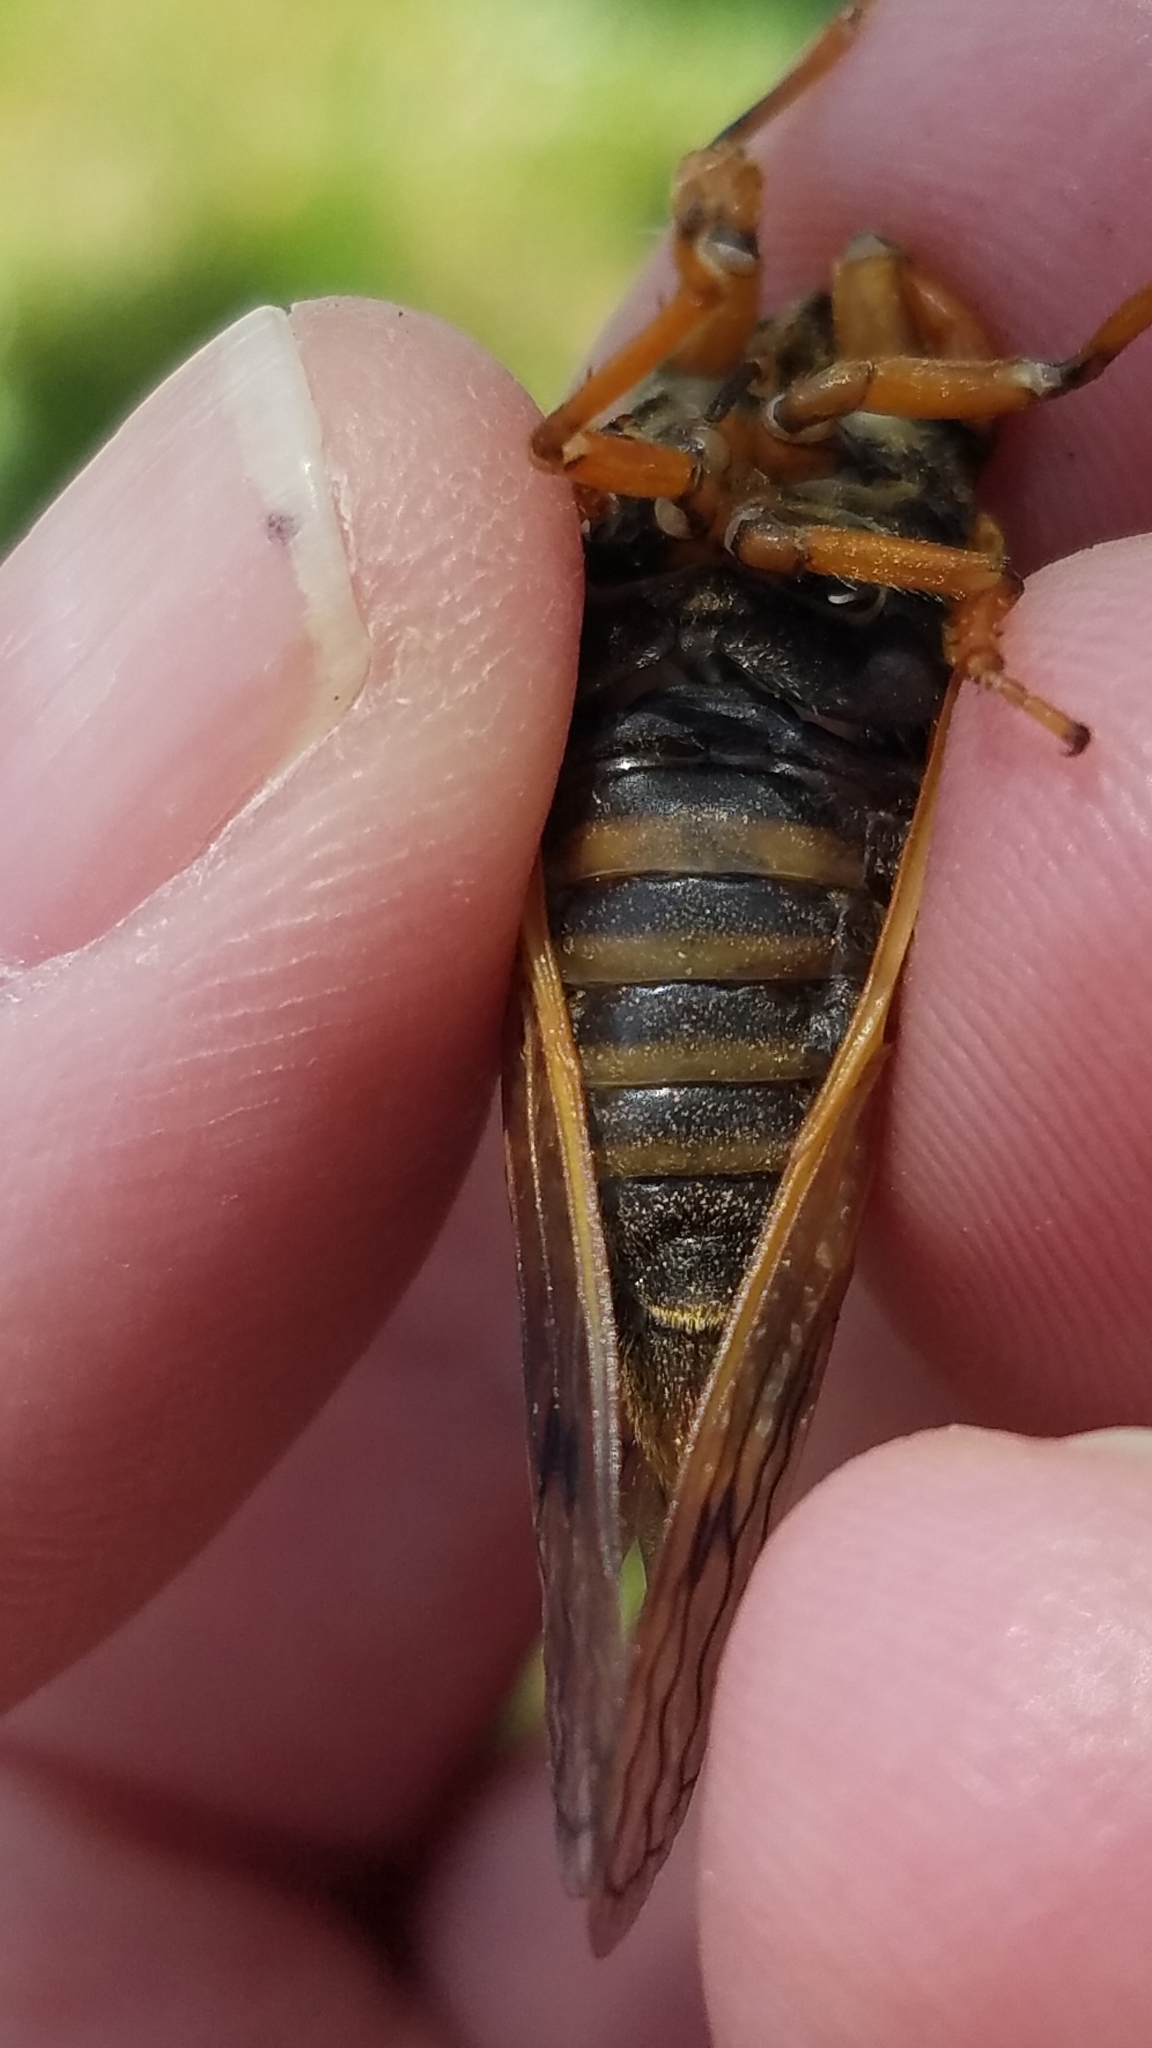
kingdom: Animalia
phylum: Arthropoda
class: Insecta
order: Hemiptera
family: Cicadidae
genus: Magicicada
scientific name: Magicicada cassini
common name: Cassin's 17-year cicada
